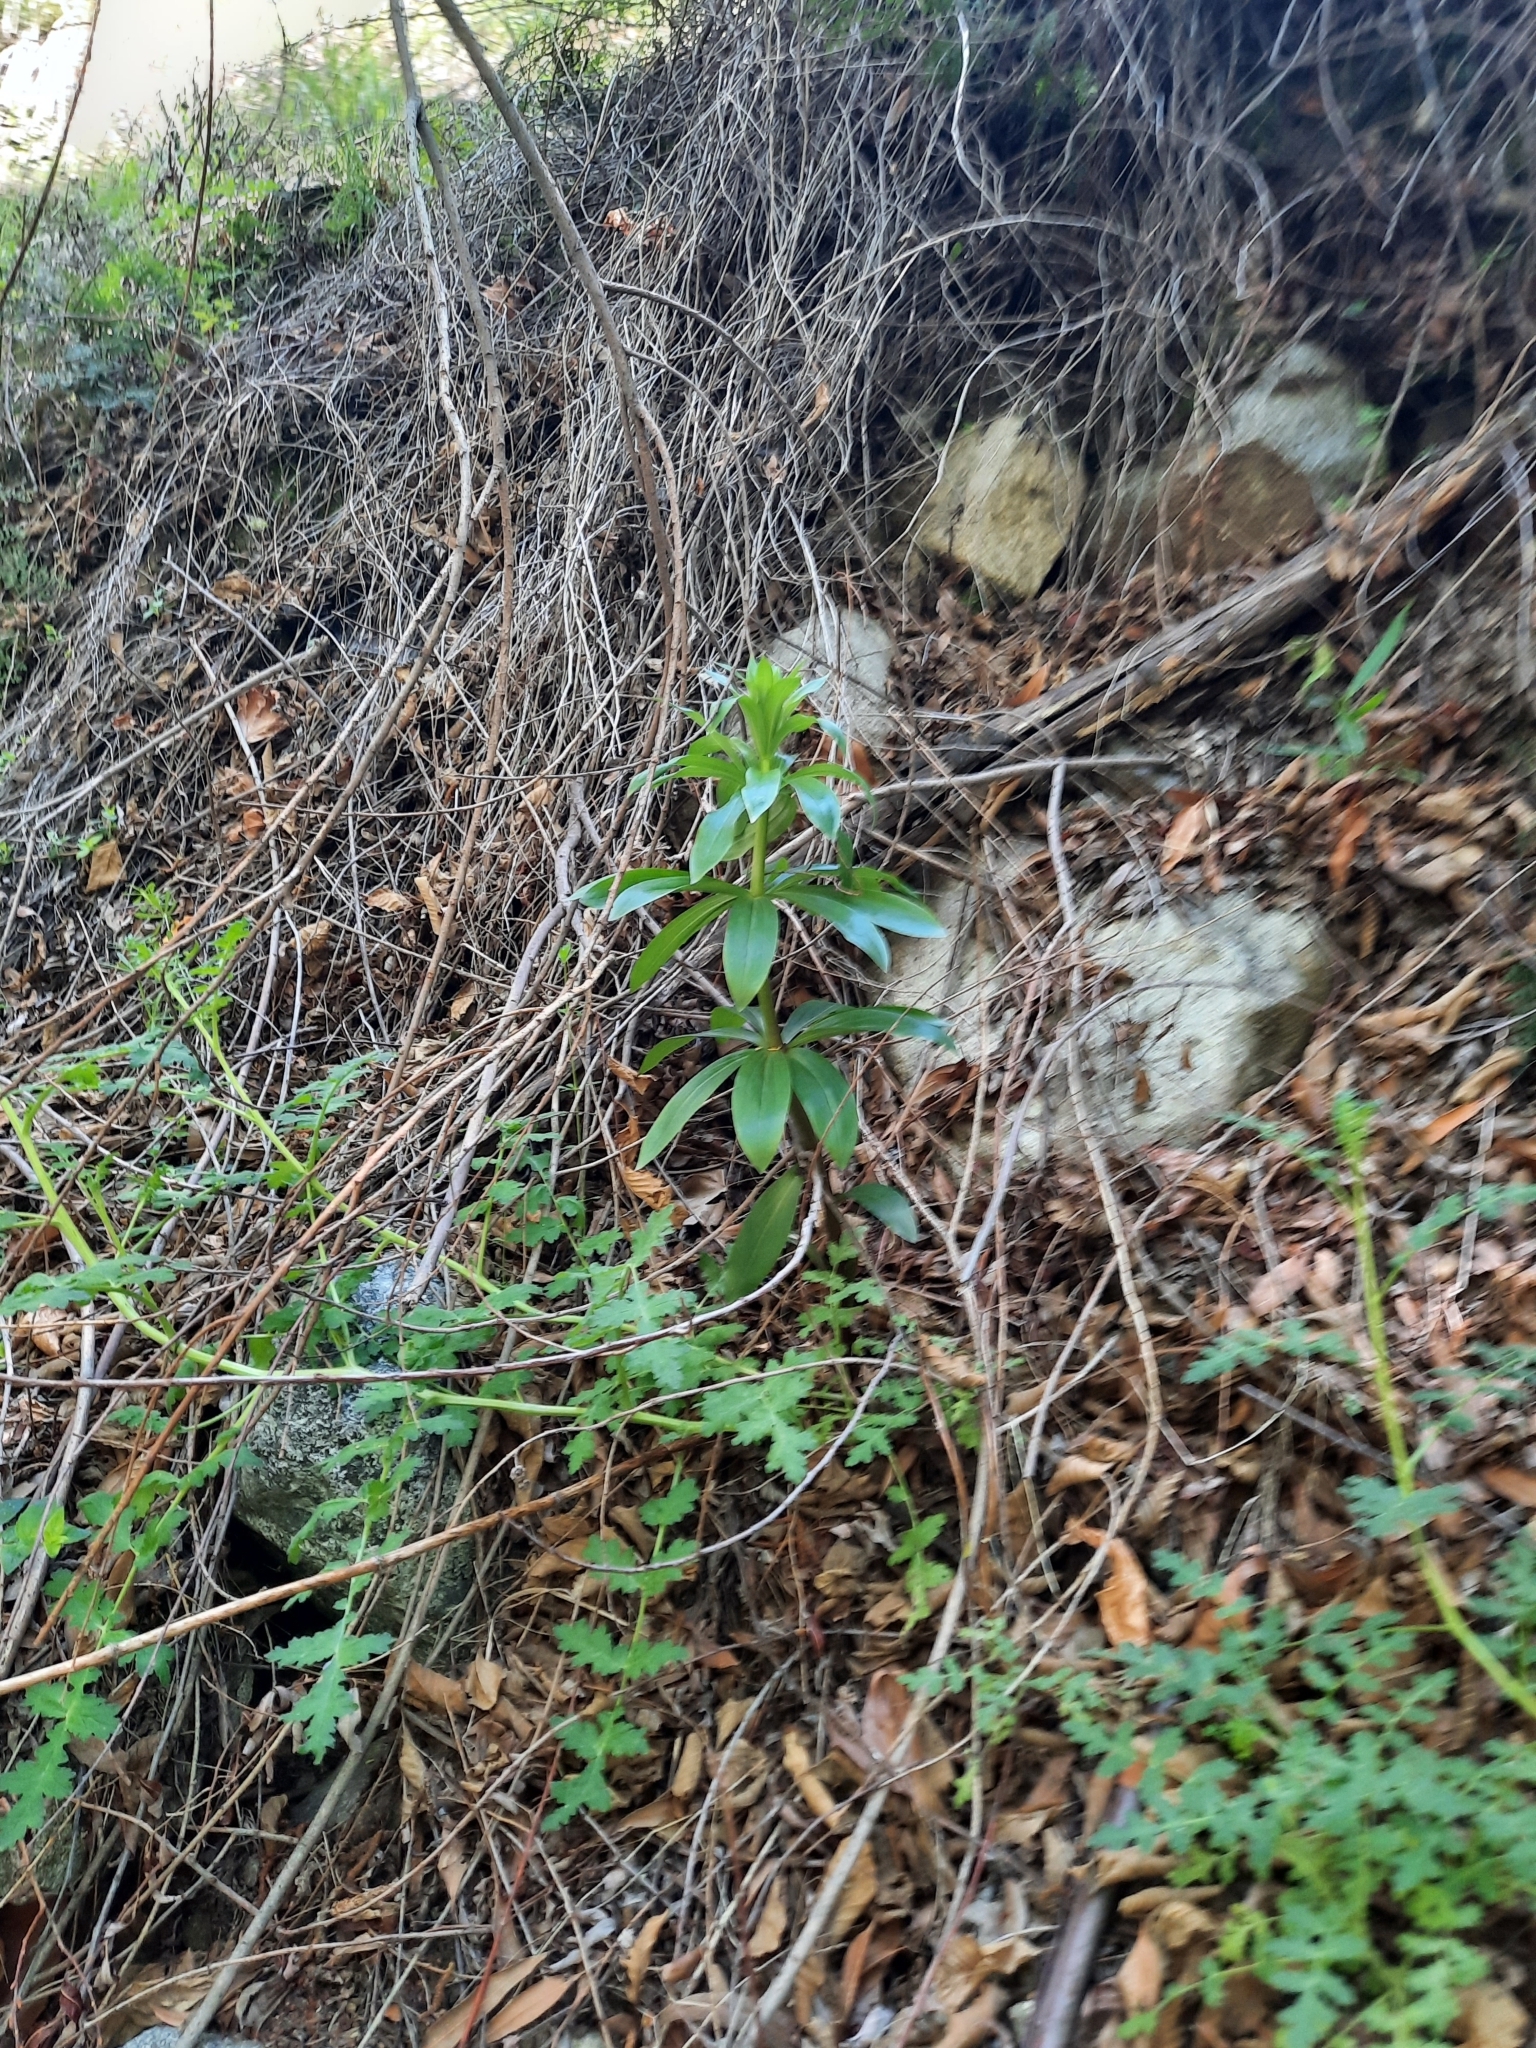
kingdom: Plantae
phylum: Tracheophyta
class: Liliopsida
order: Liliales
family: Liliaceae
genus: Lilium
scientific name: Lilium humboldtii
